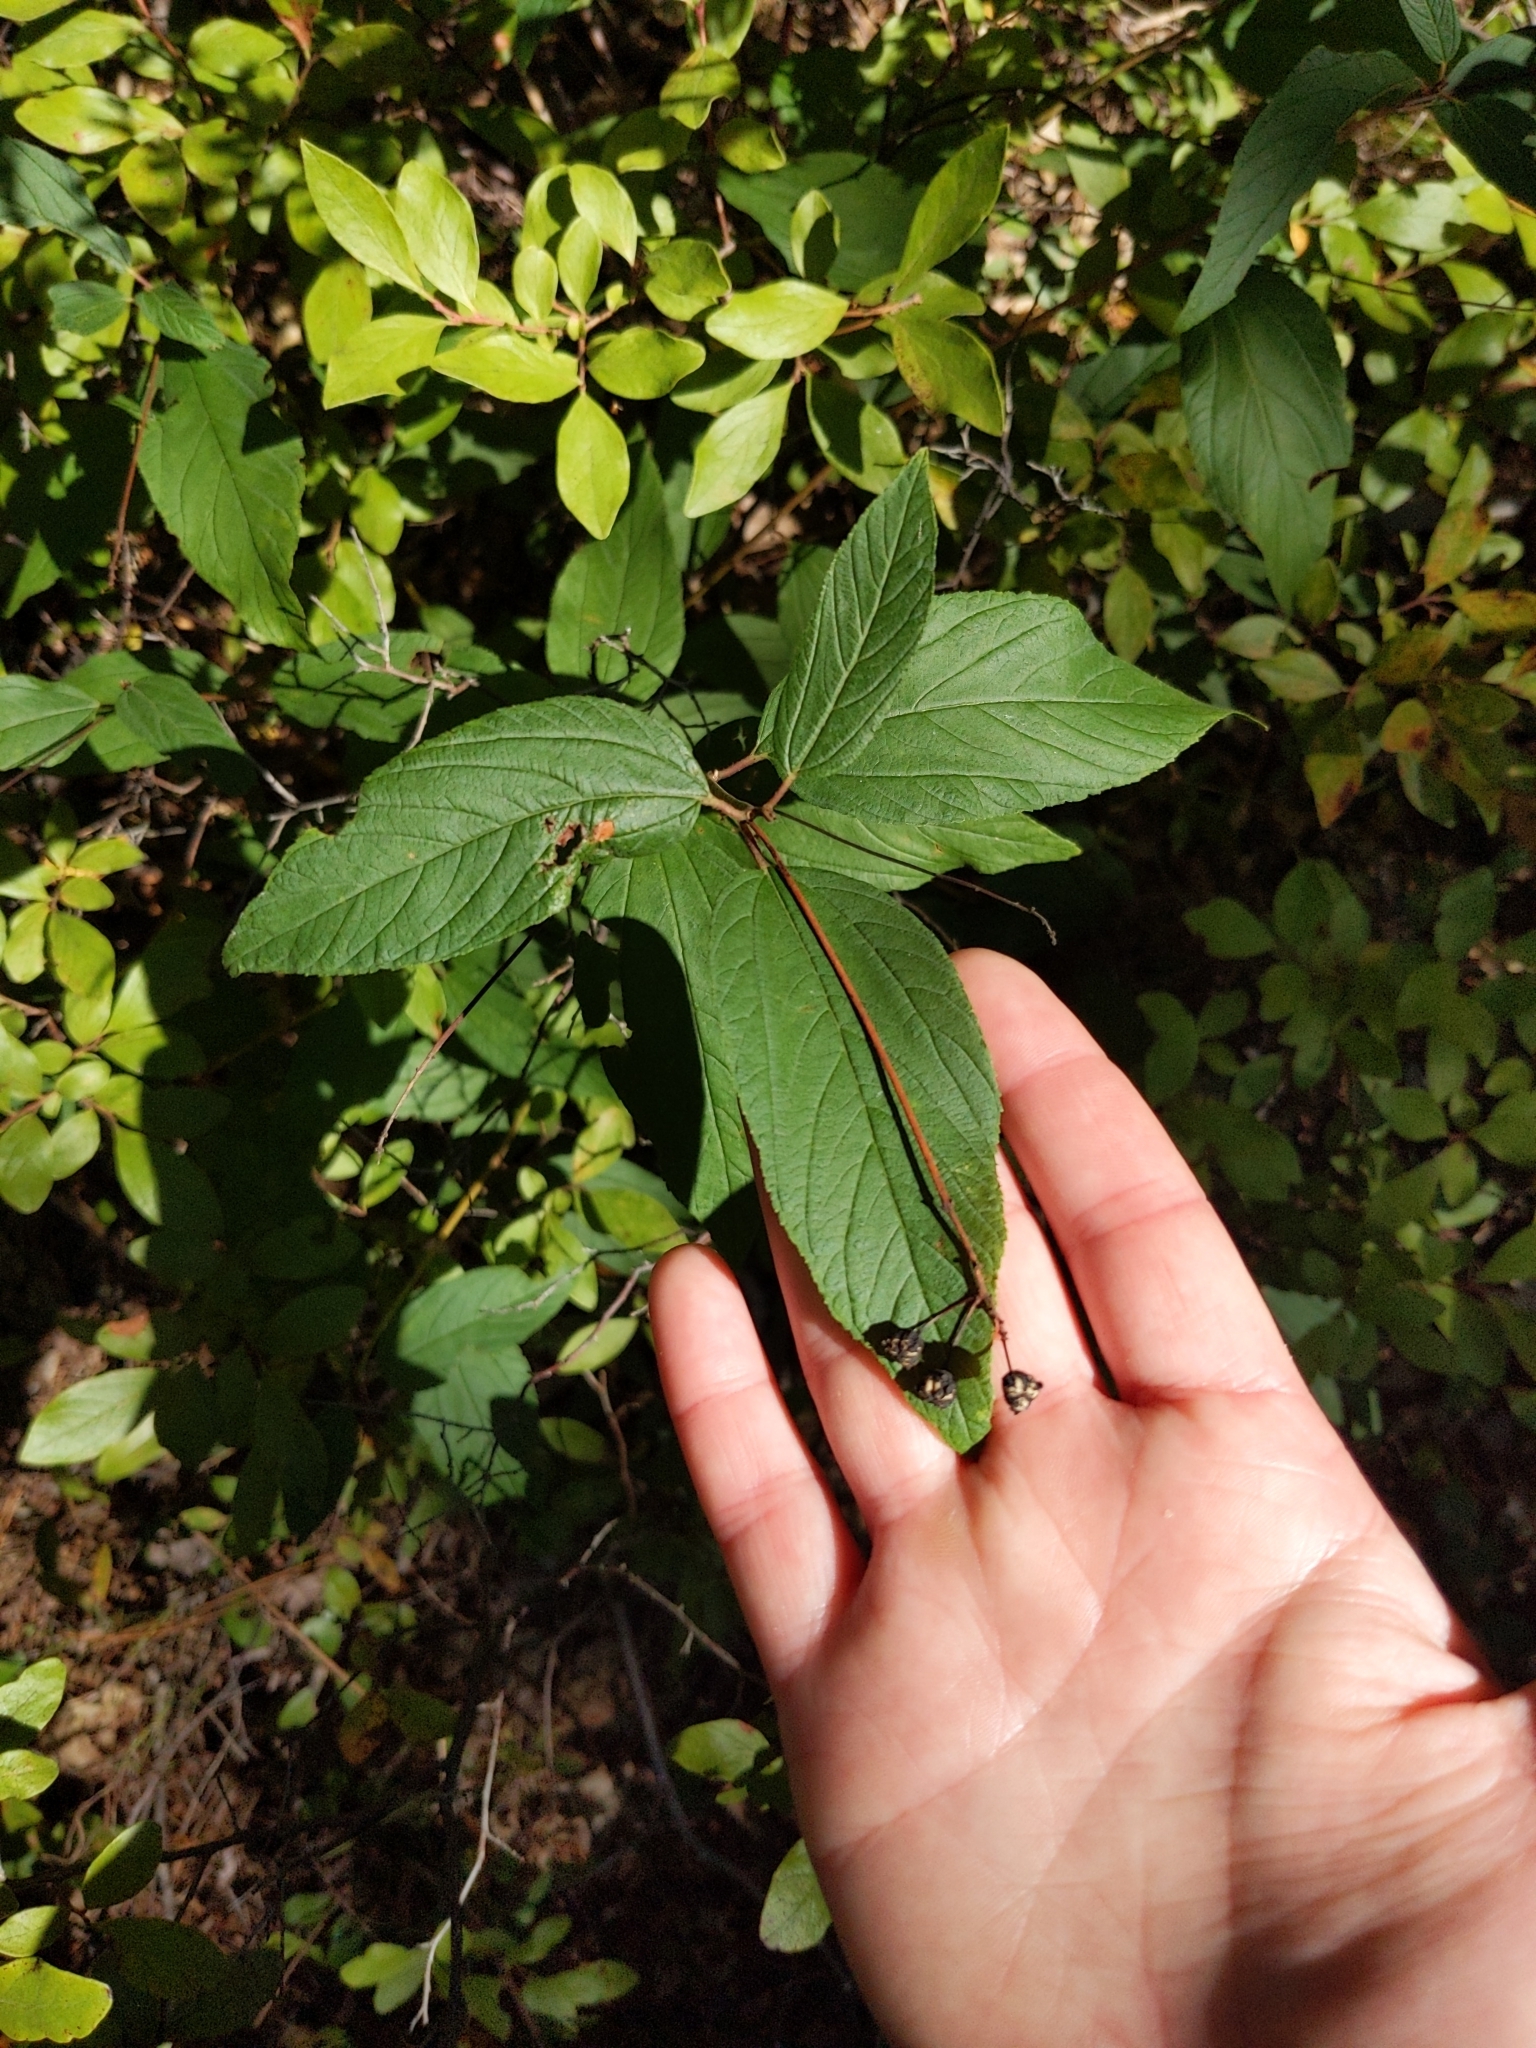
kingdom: Plantae
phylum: Tracheophyta
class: Magnoliopsida
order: Rosales
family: Rhamnaceae
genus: Ceanothus
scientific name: Ceanothus americanus
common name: Redroot
